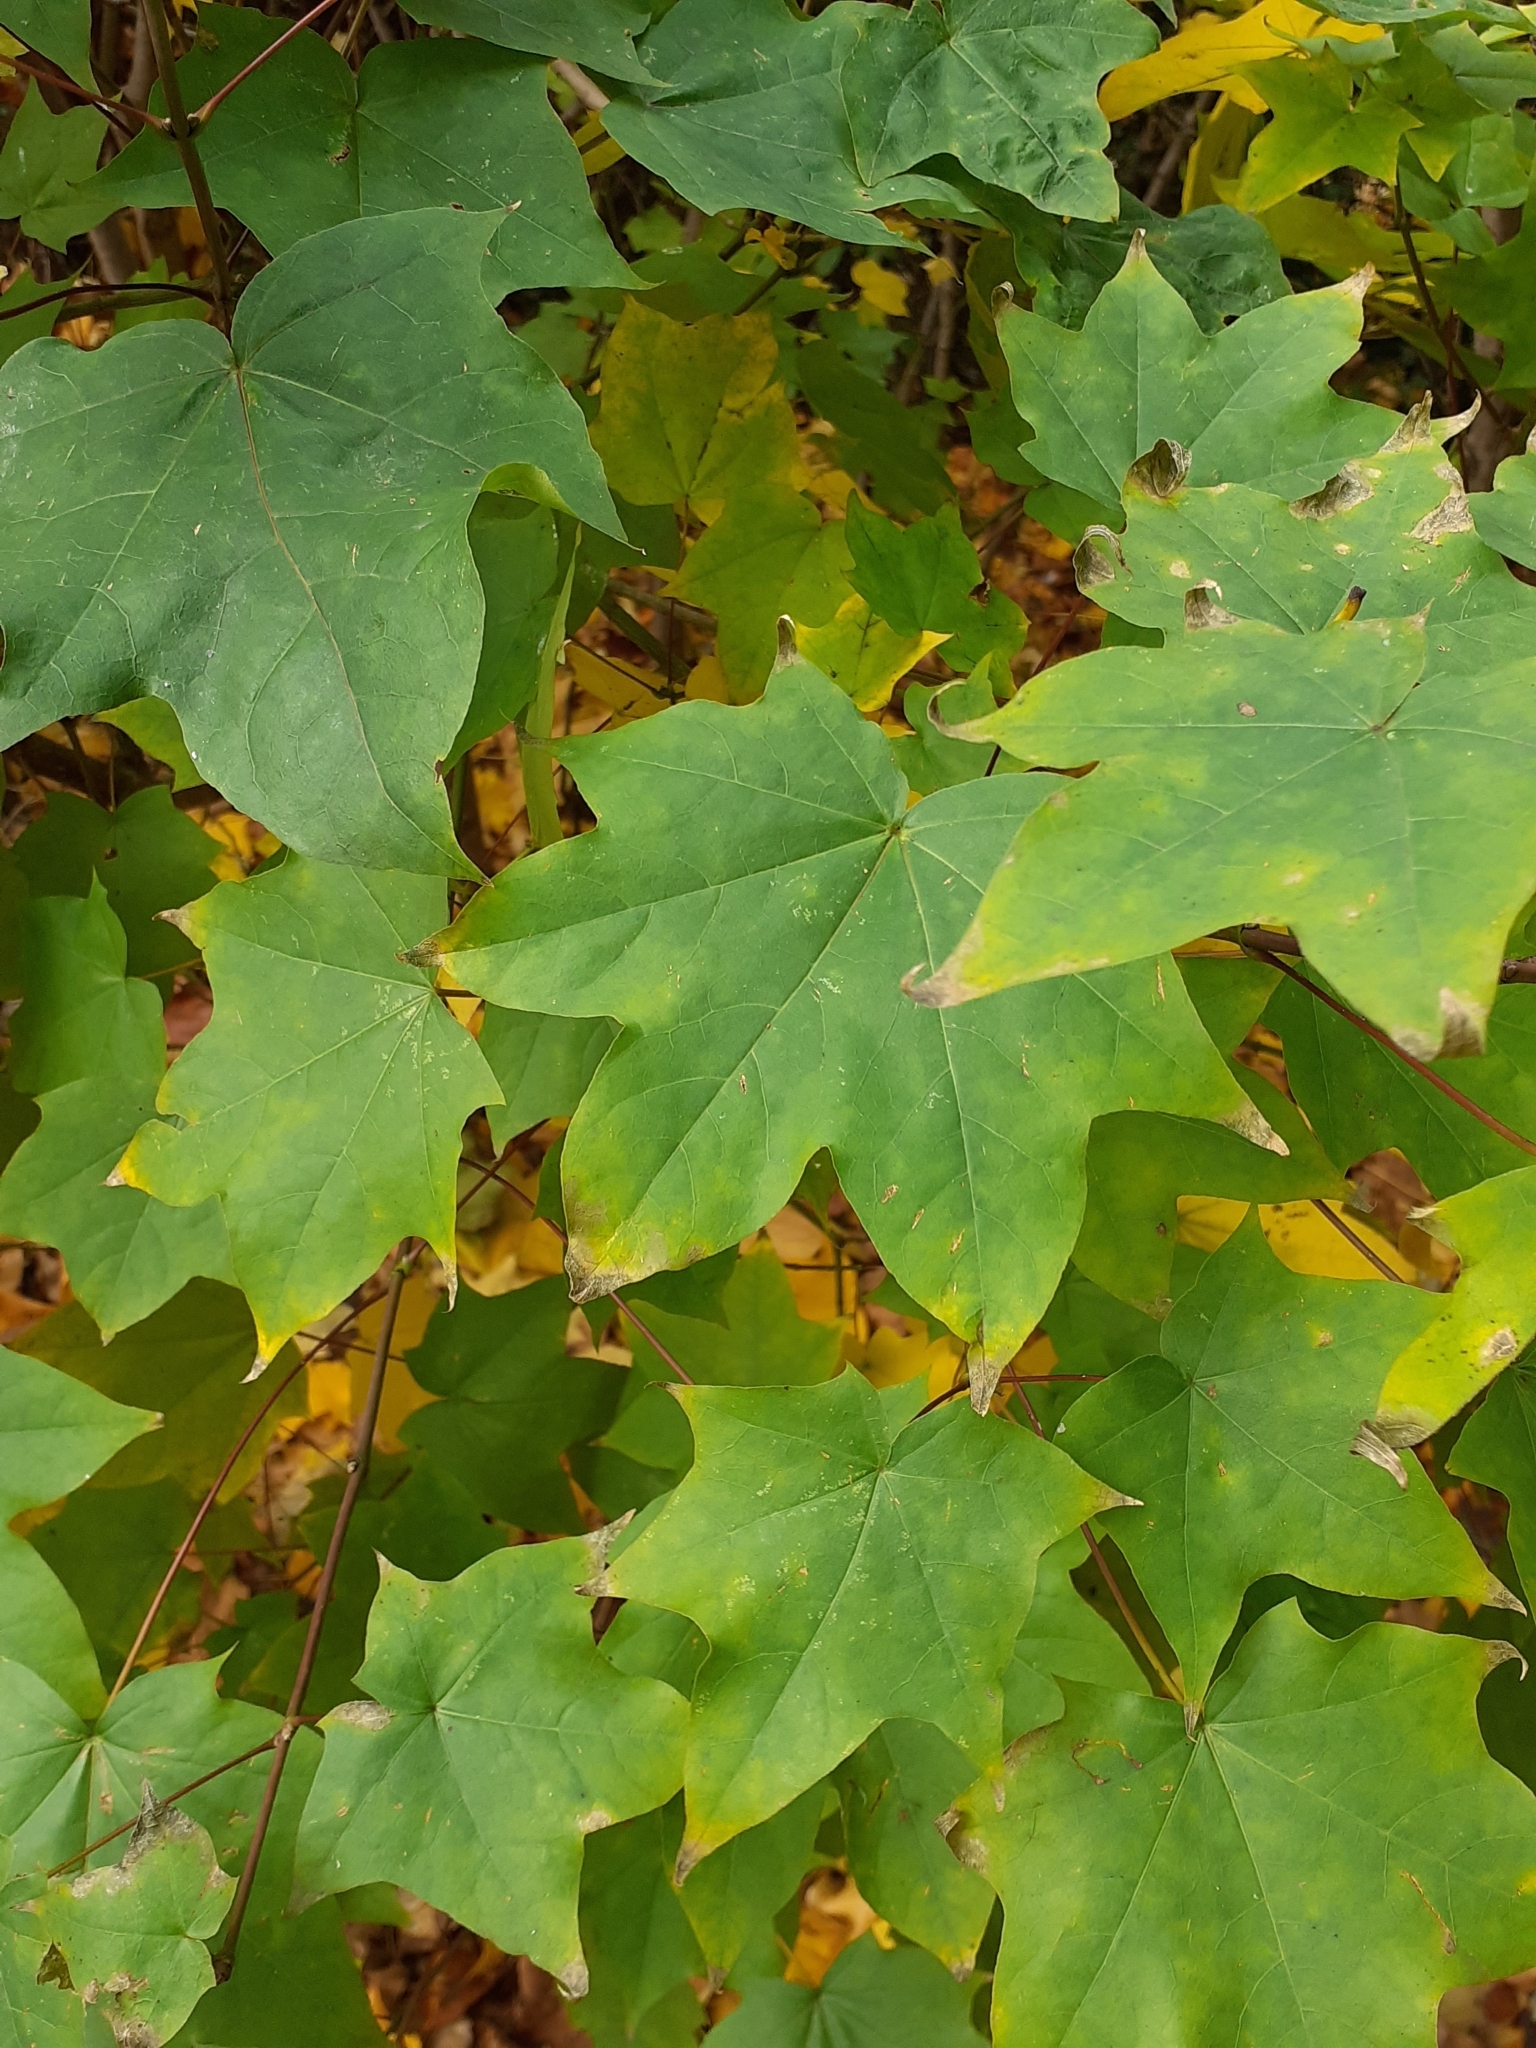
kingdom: Plantae
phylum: Tracheophyta
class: Magnoliopsida
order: Sapindales
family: Sapindaceae
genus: Acer
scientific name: Acer cappadocicum
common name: Cappadocian maple
